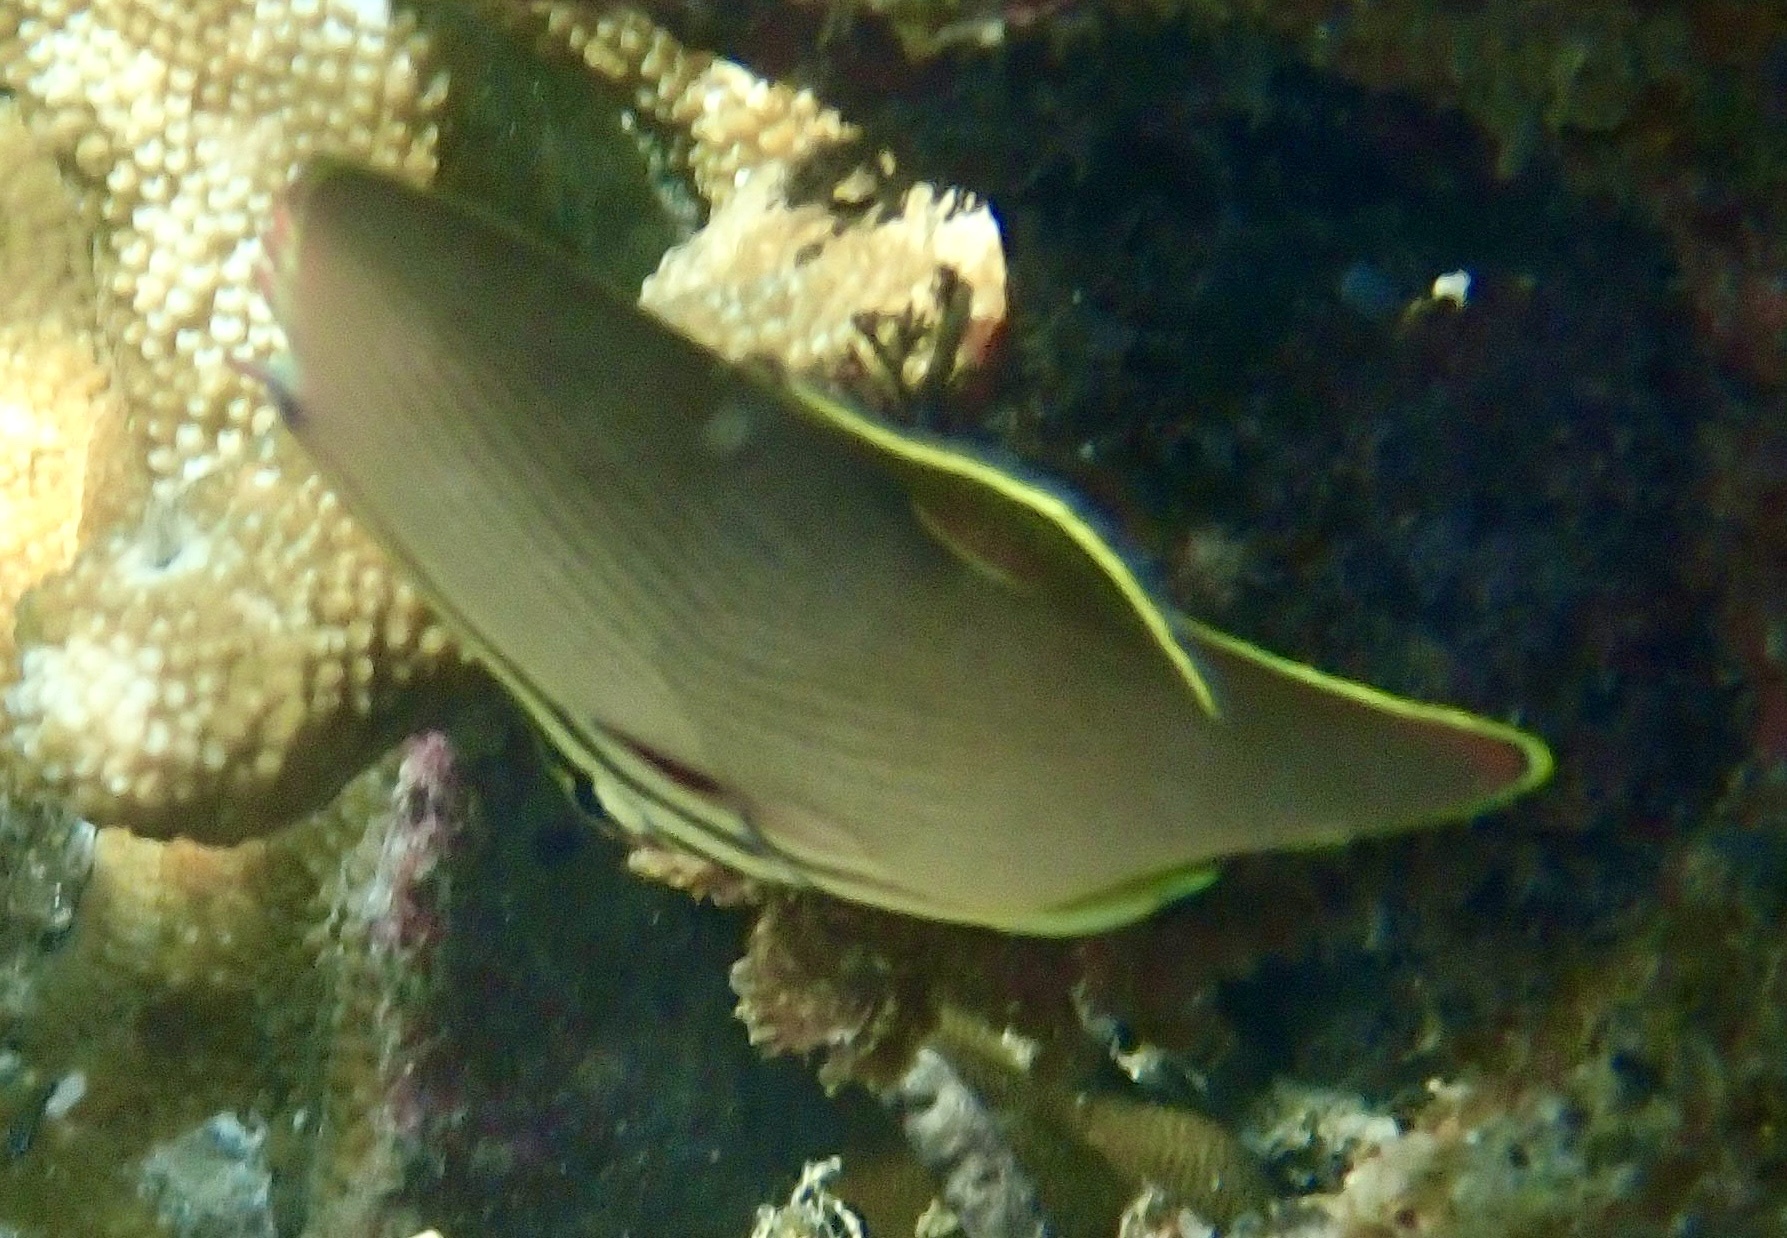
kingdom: Animalia
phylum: Chordata
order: Perciformes
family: Chaetodontidae
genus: Chaetodon
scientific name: Chaetodon baronessa
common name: Triangular butterflyfish
